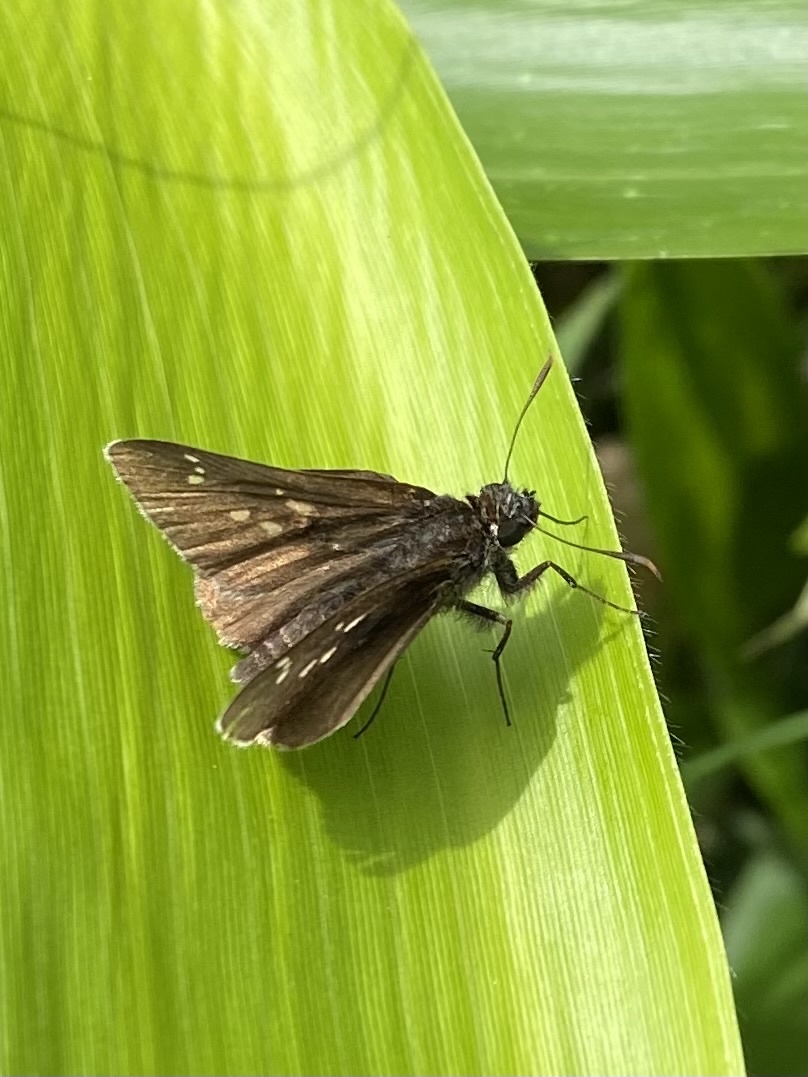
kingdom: Animalia
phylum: Arthropoda
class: Insecta
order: Lepidoptera
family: Hesperiidae
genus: Thoressa
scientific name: Thoressa varia
